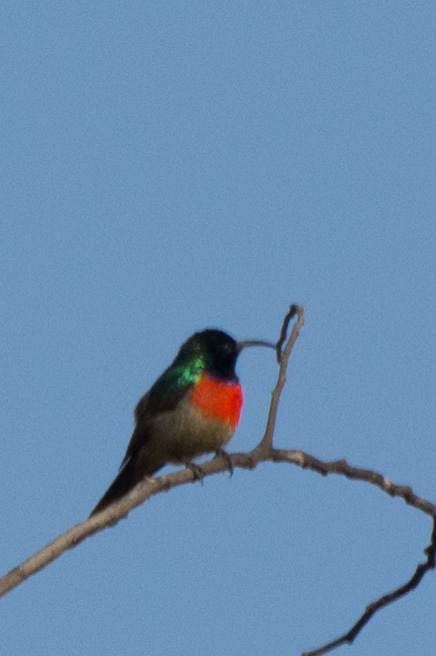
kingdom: Animalia
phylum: Chordata
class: Aves
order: Passeriformes
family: Nectariniidae
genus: Cinnyris
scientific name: Cinnyris afer
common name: Greater double-collared sunbird
